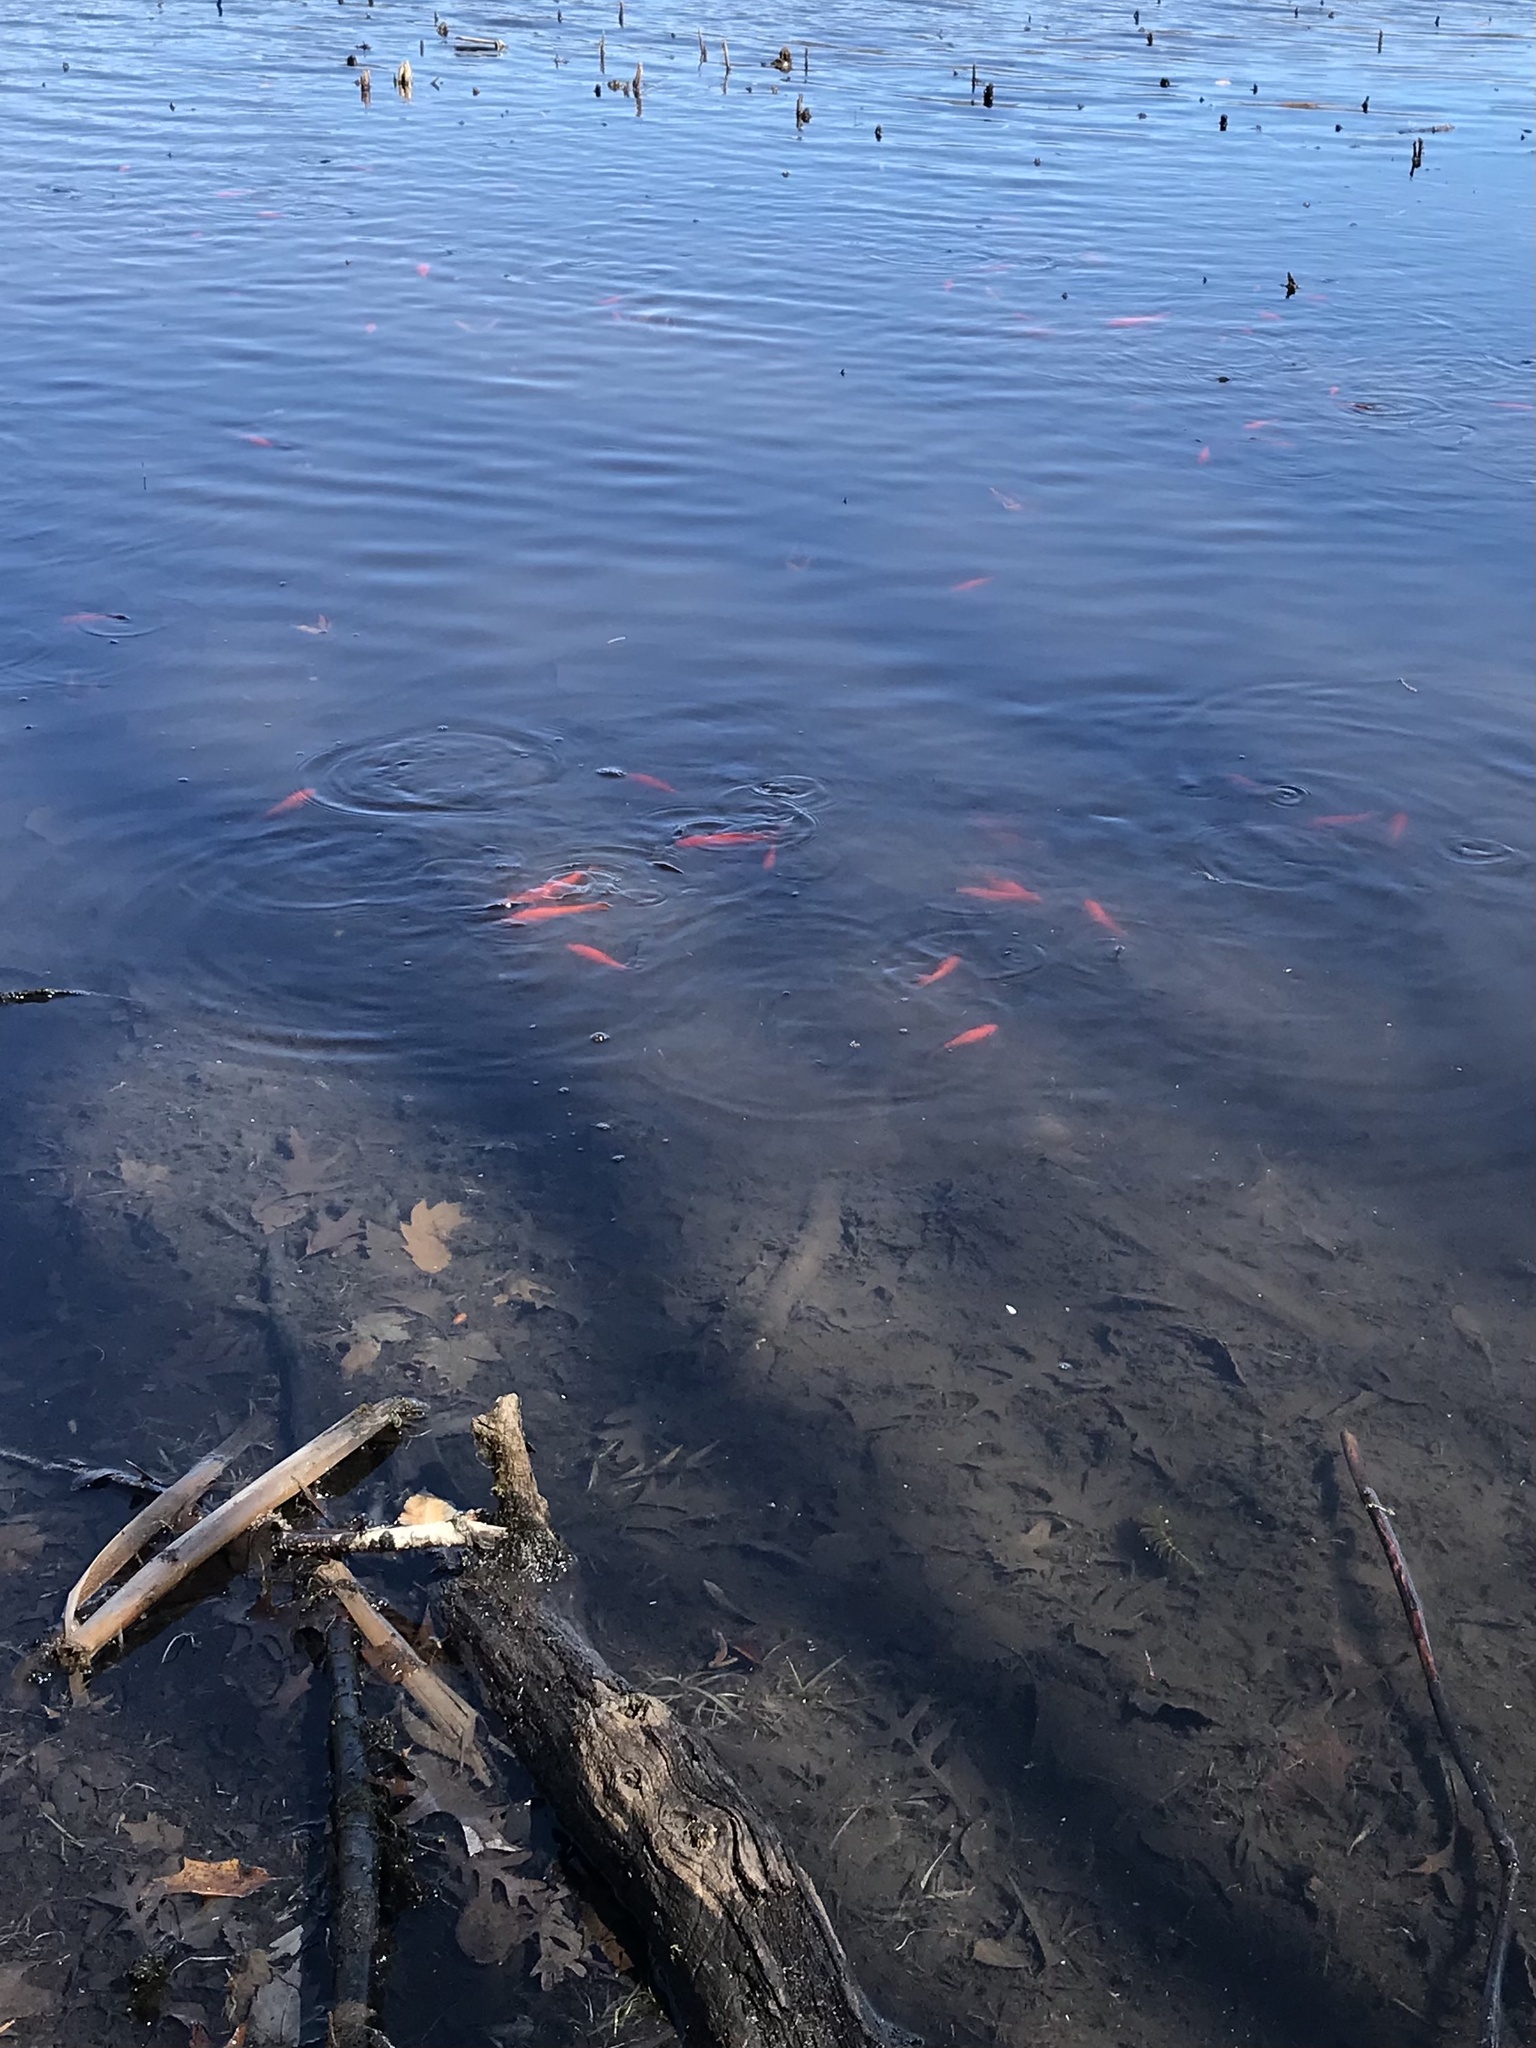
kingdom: Animalia
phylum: Chordata
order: Cypriniformes
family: Cyprinidae
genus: Carassius
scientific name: Carassius auratus
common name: Goldfish
